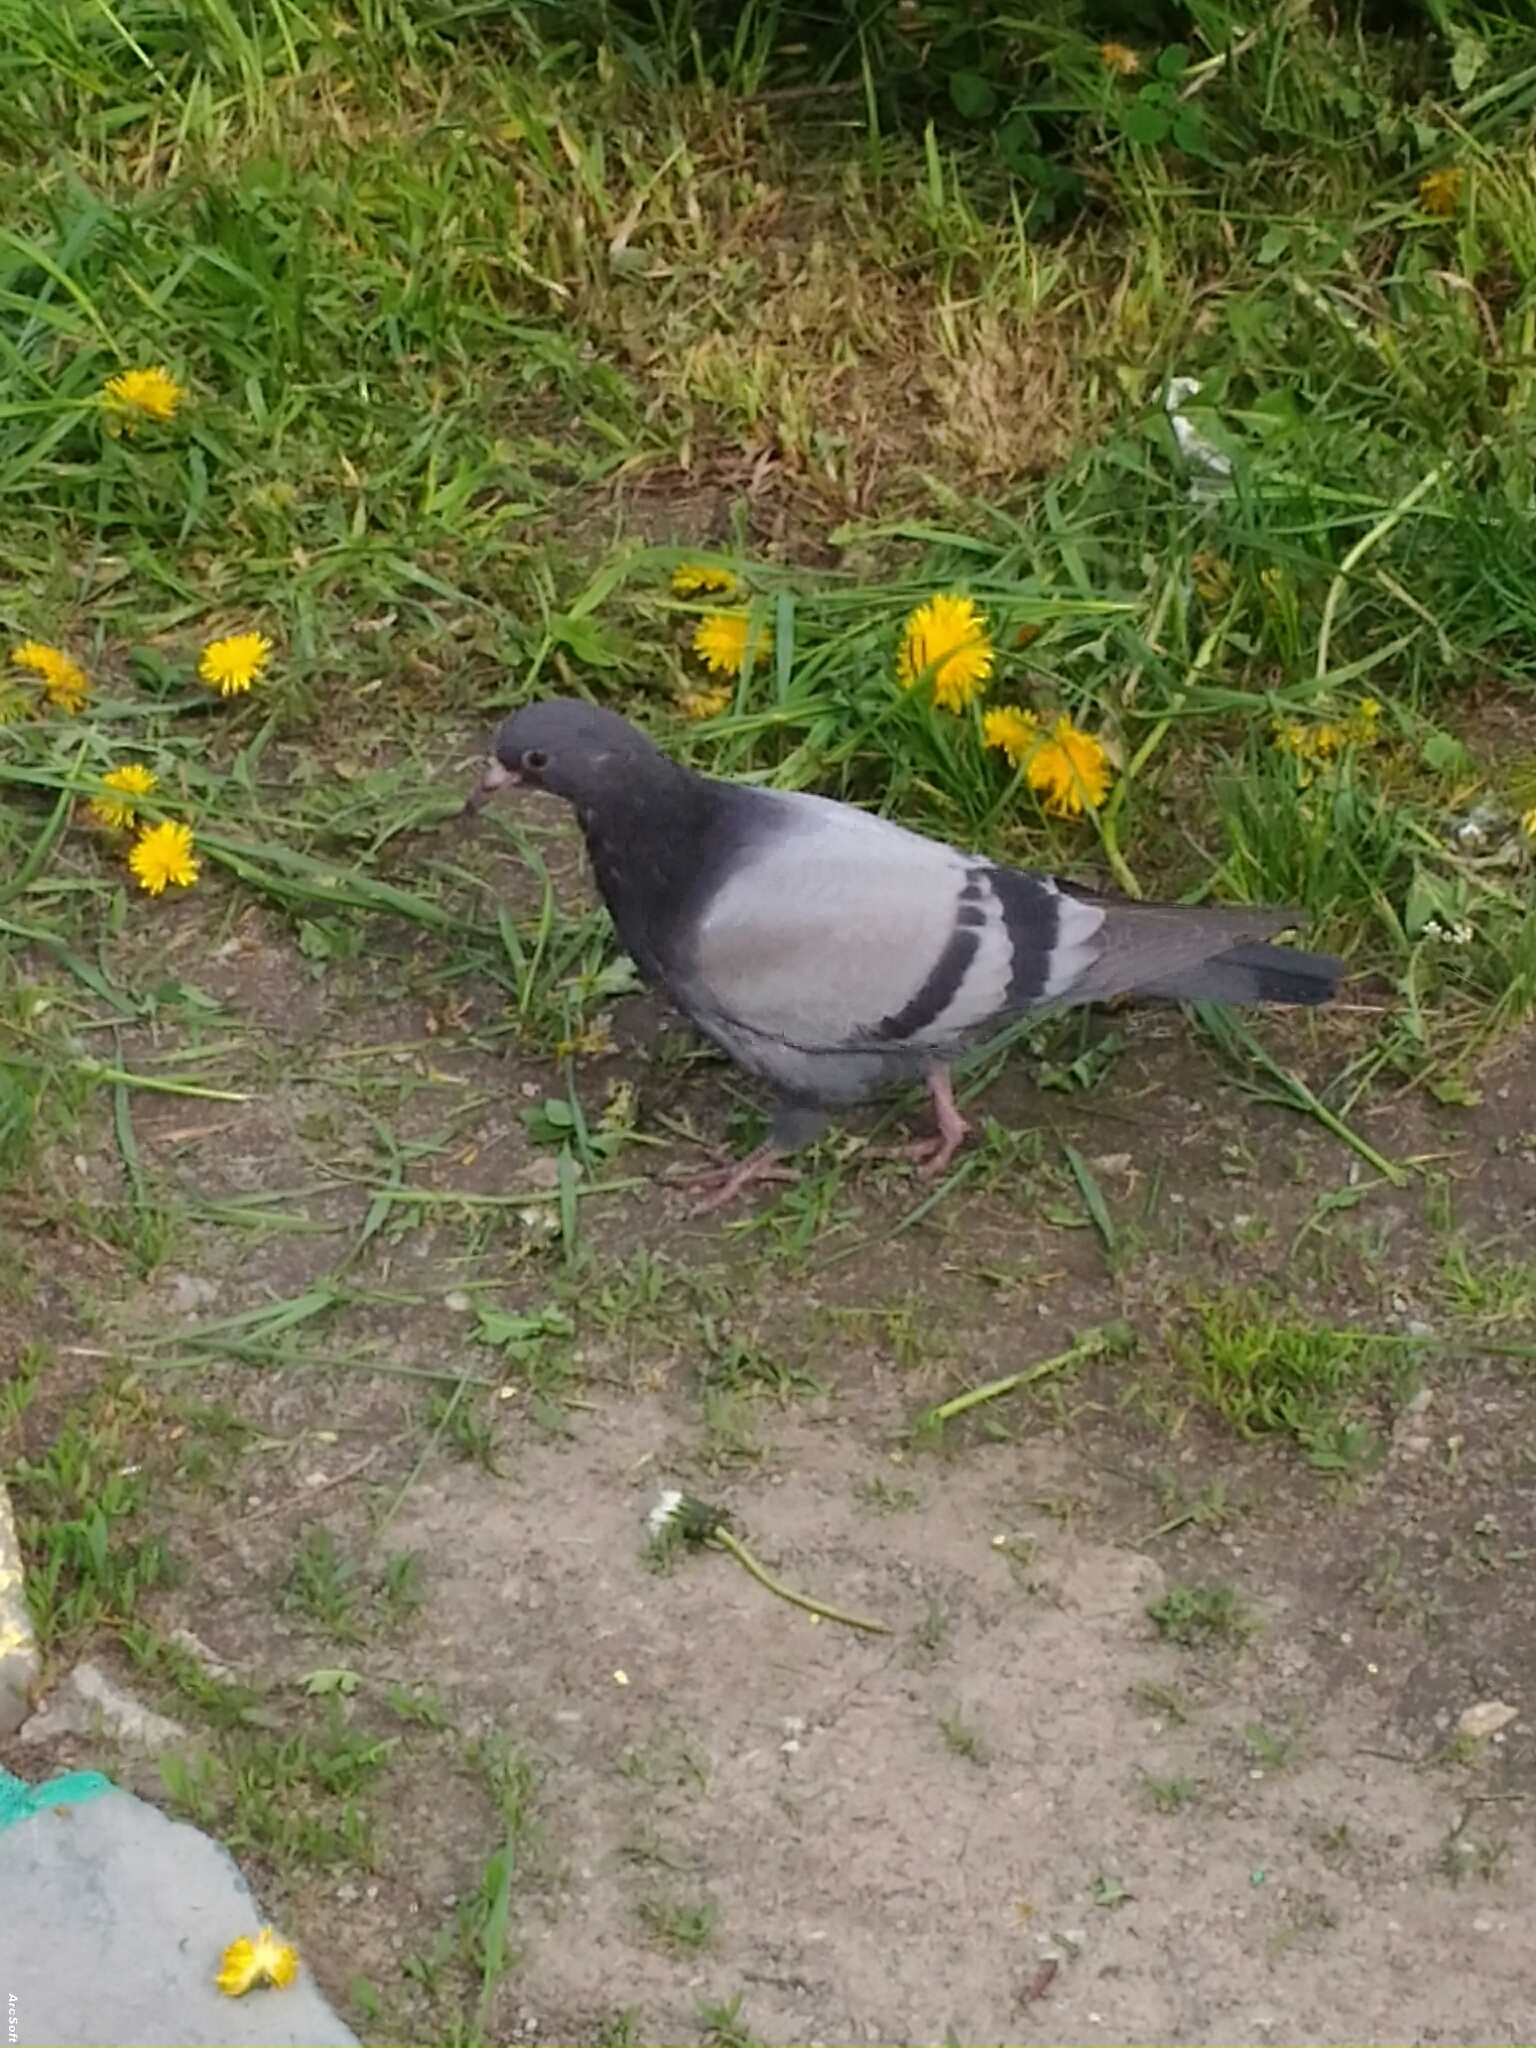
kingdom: Animalia
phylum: Chordata
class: Aves
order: Columbiformes
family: Columbidae
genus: Columba
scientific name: Columba livia
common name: Rock pigeon
